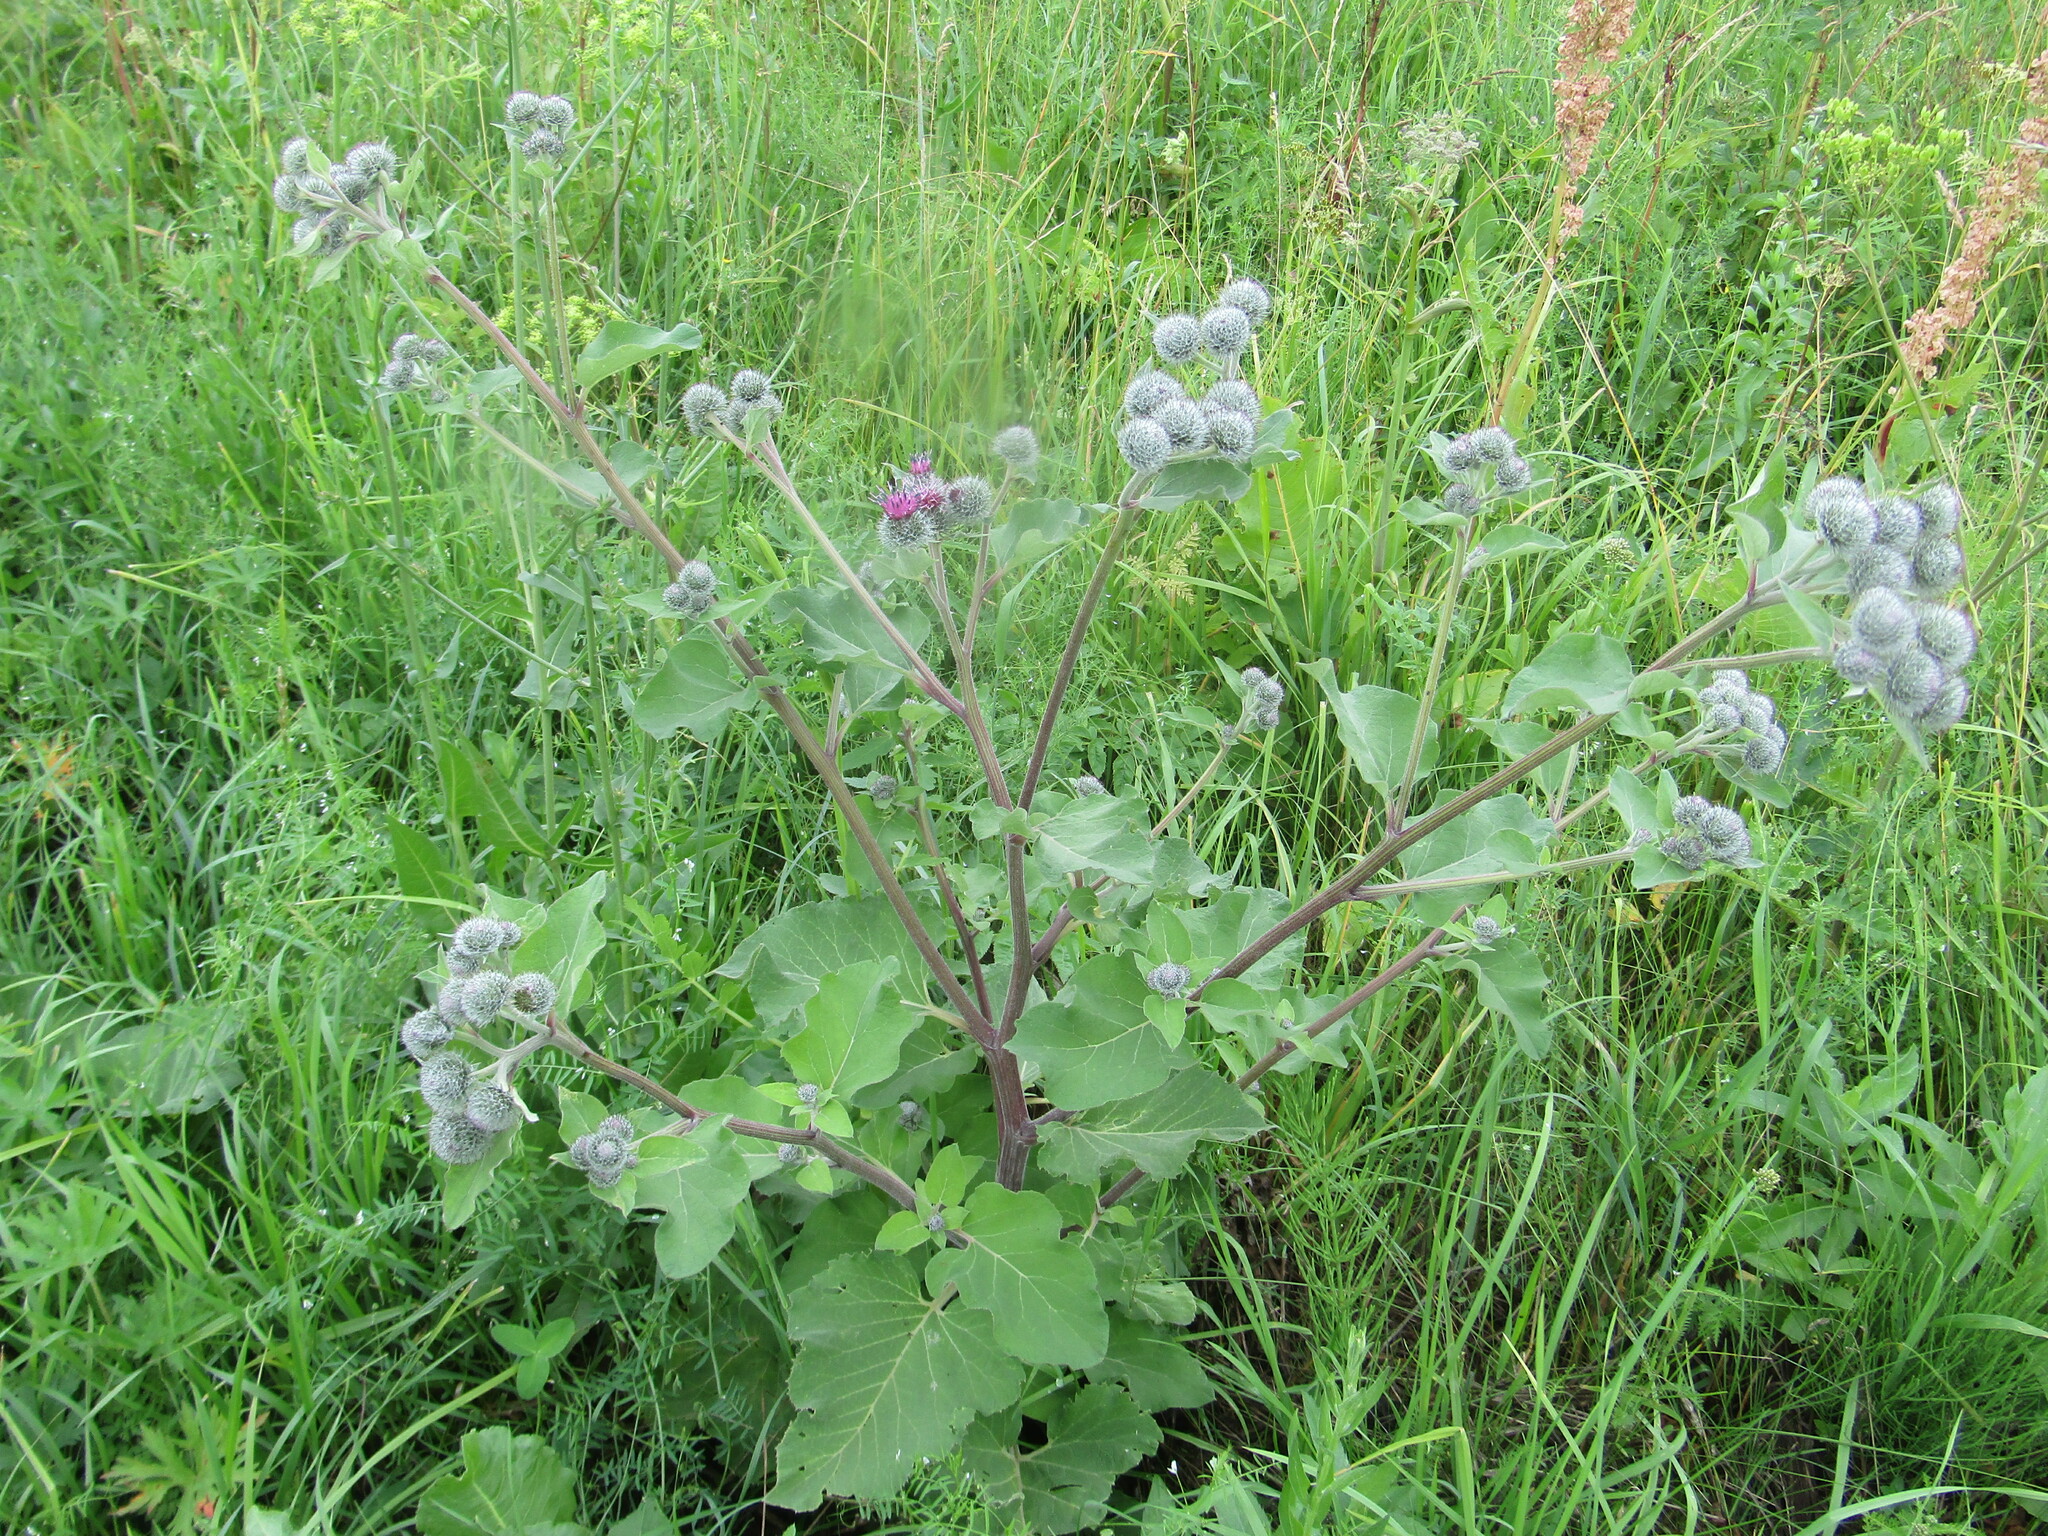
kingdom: Plantae
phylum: Tracheophyta
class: Magnoliopsida
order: Asterales
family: Asteraceae
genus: Arctium
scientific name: Arctium tomentosum
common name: Woolly burdock
